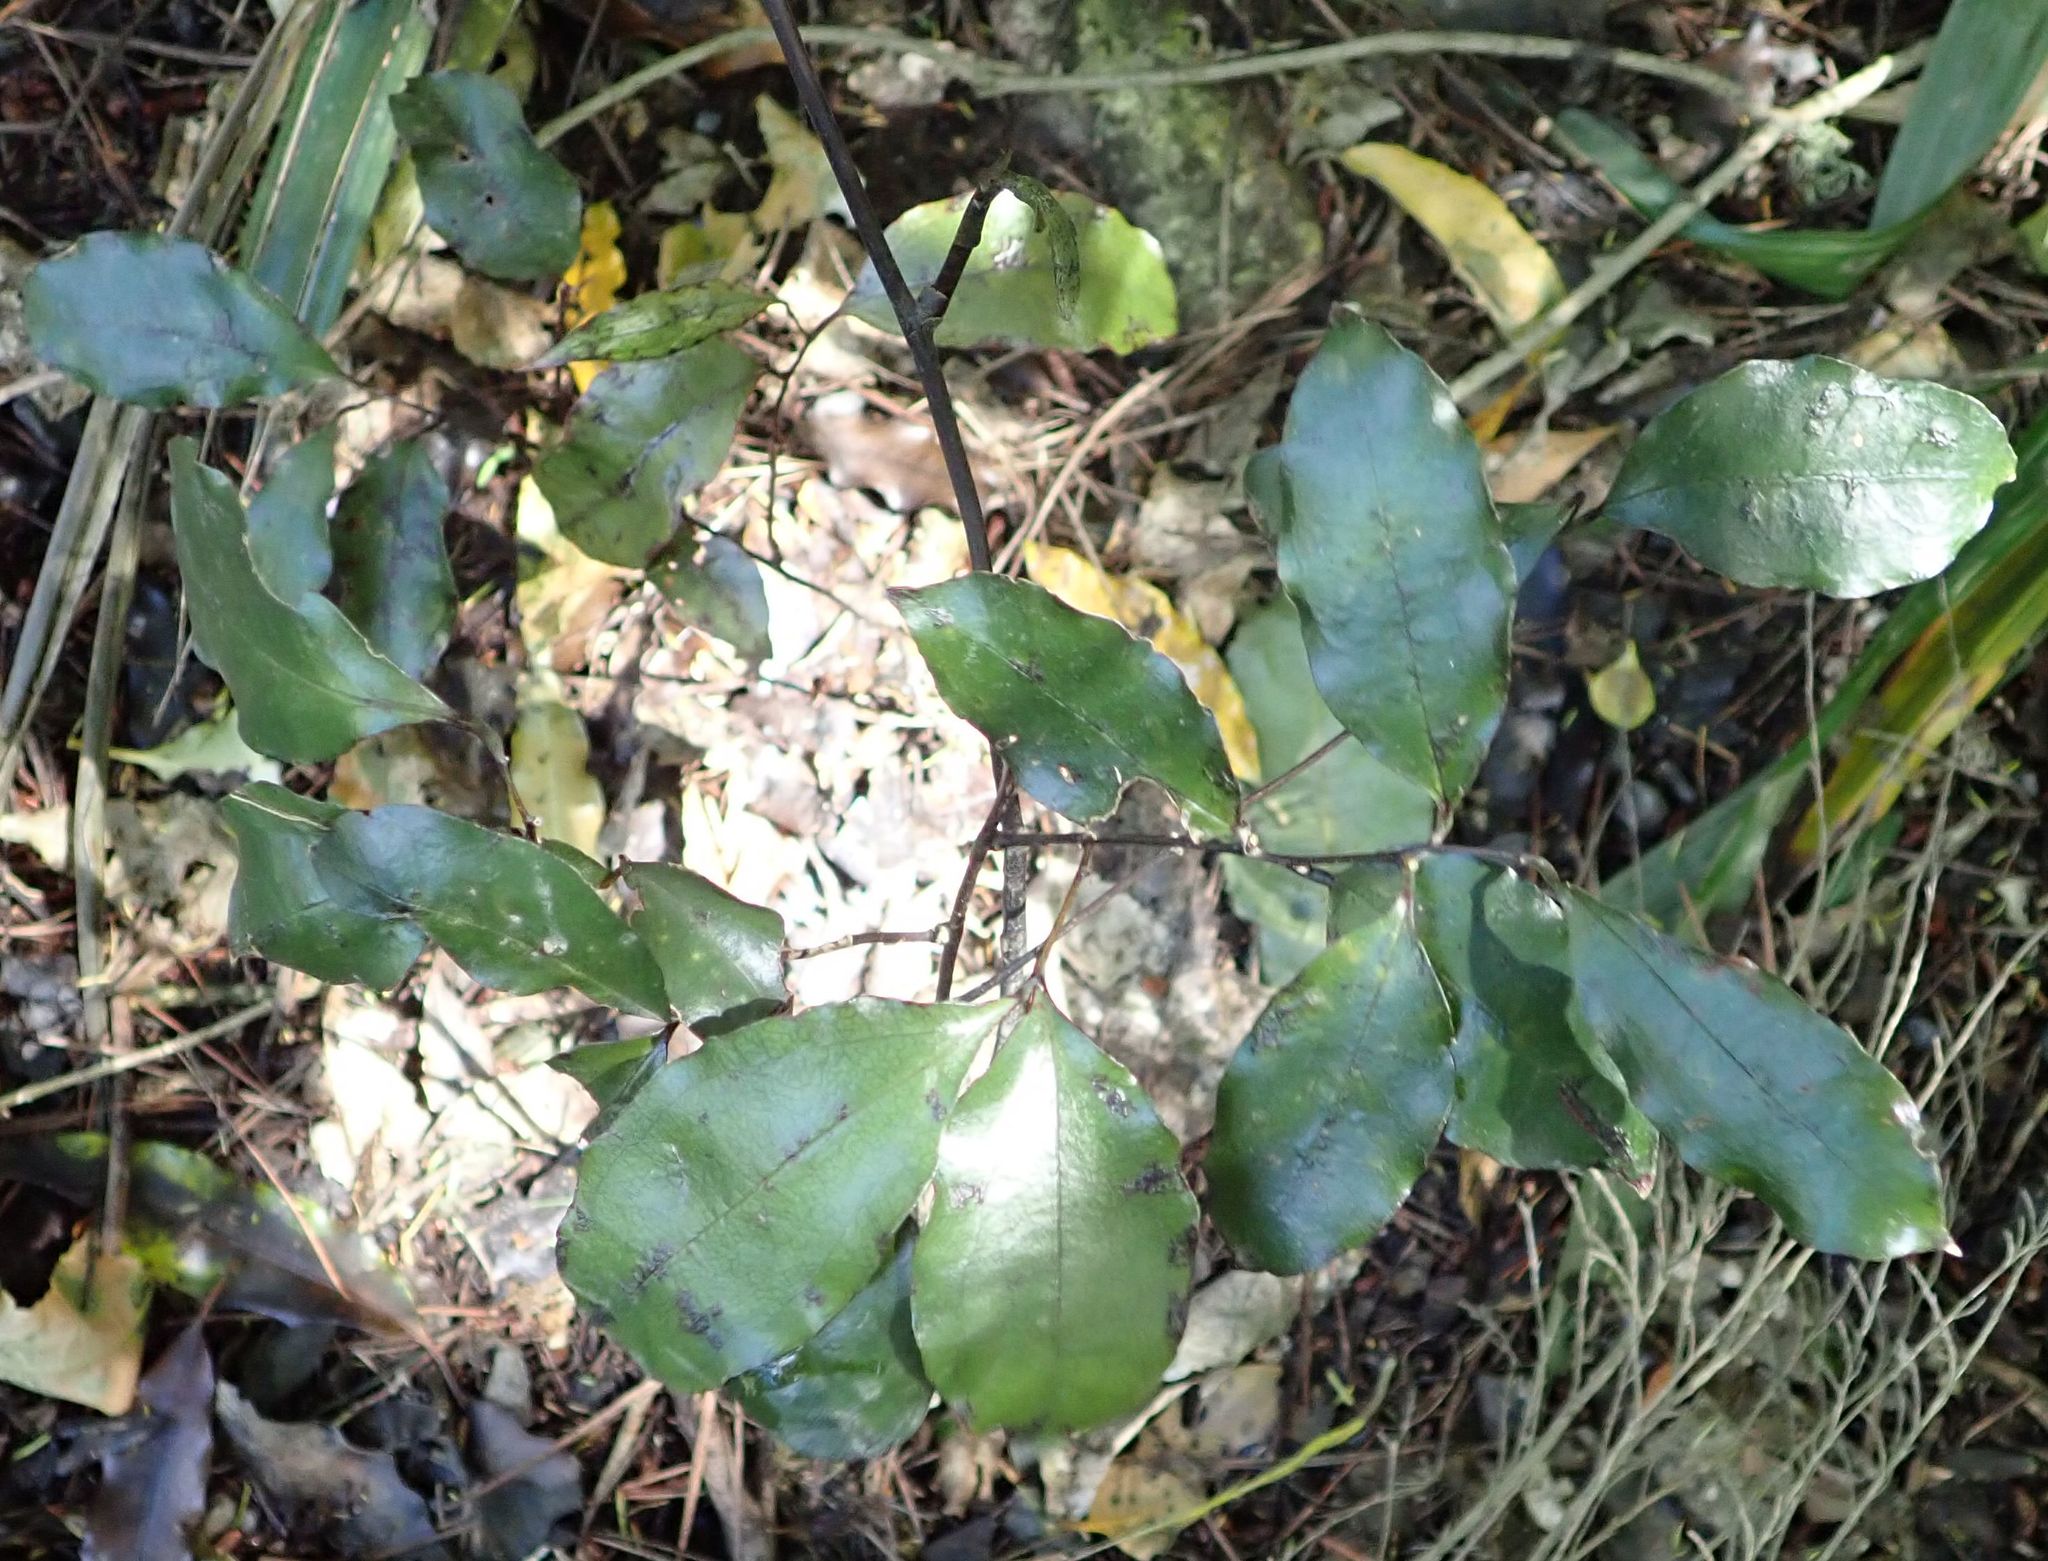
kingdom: Plantae
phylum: Tracheophyta
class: Liliopsida
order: Liliales
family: Ripogonaceae
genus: Ripogonum
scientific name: Ripogonum scandens
